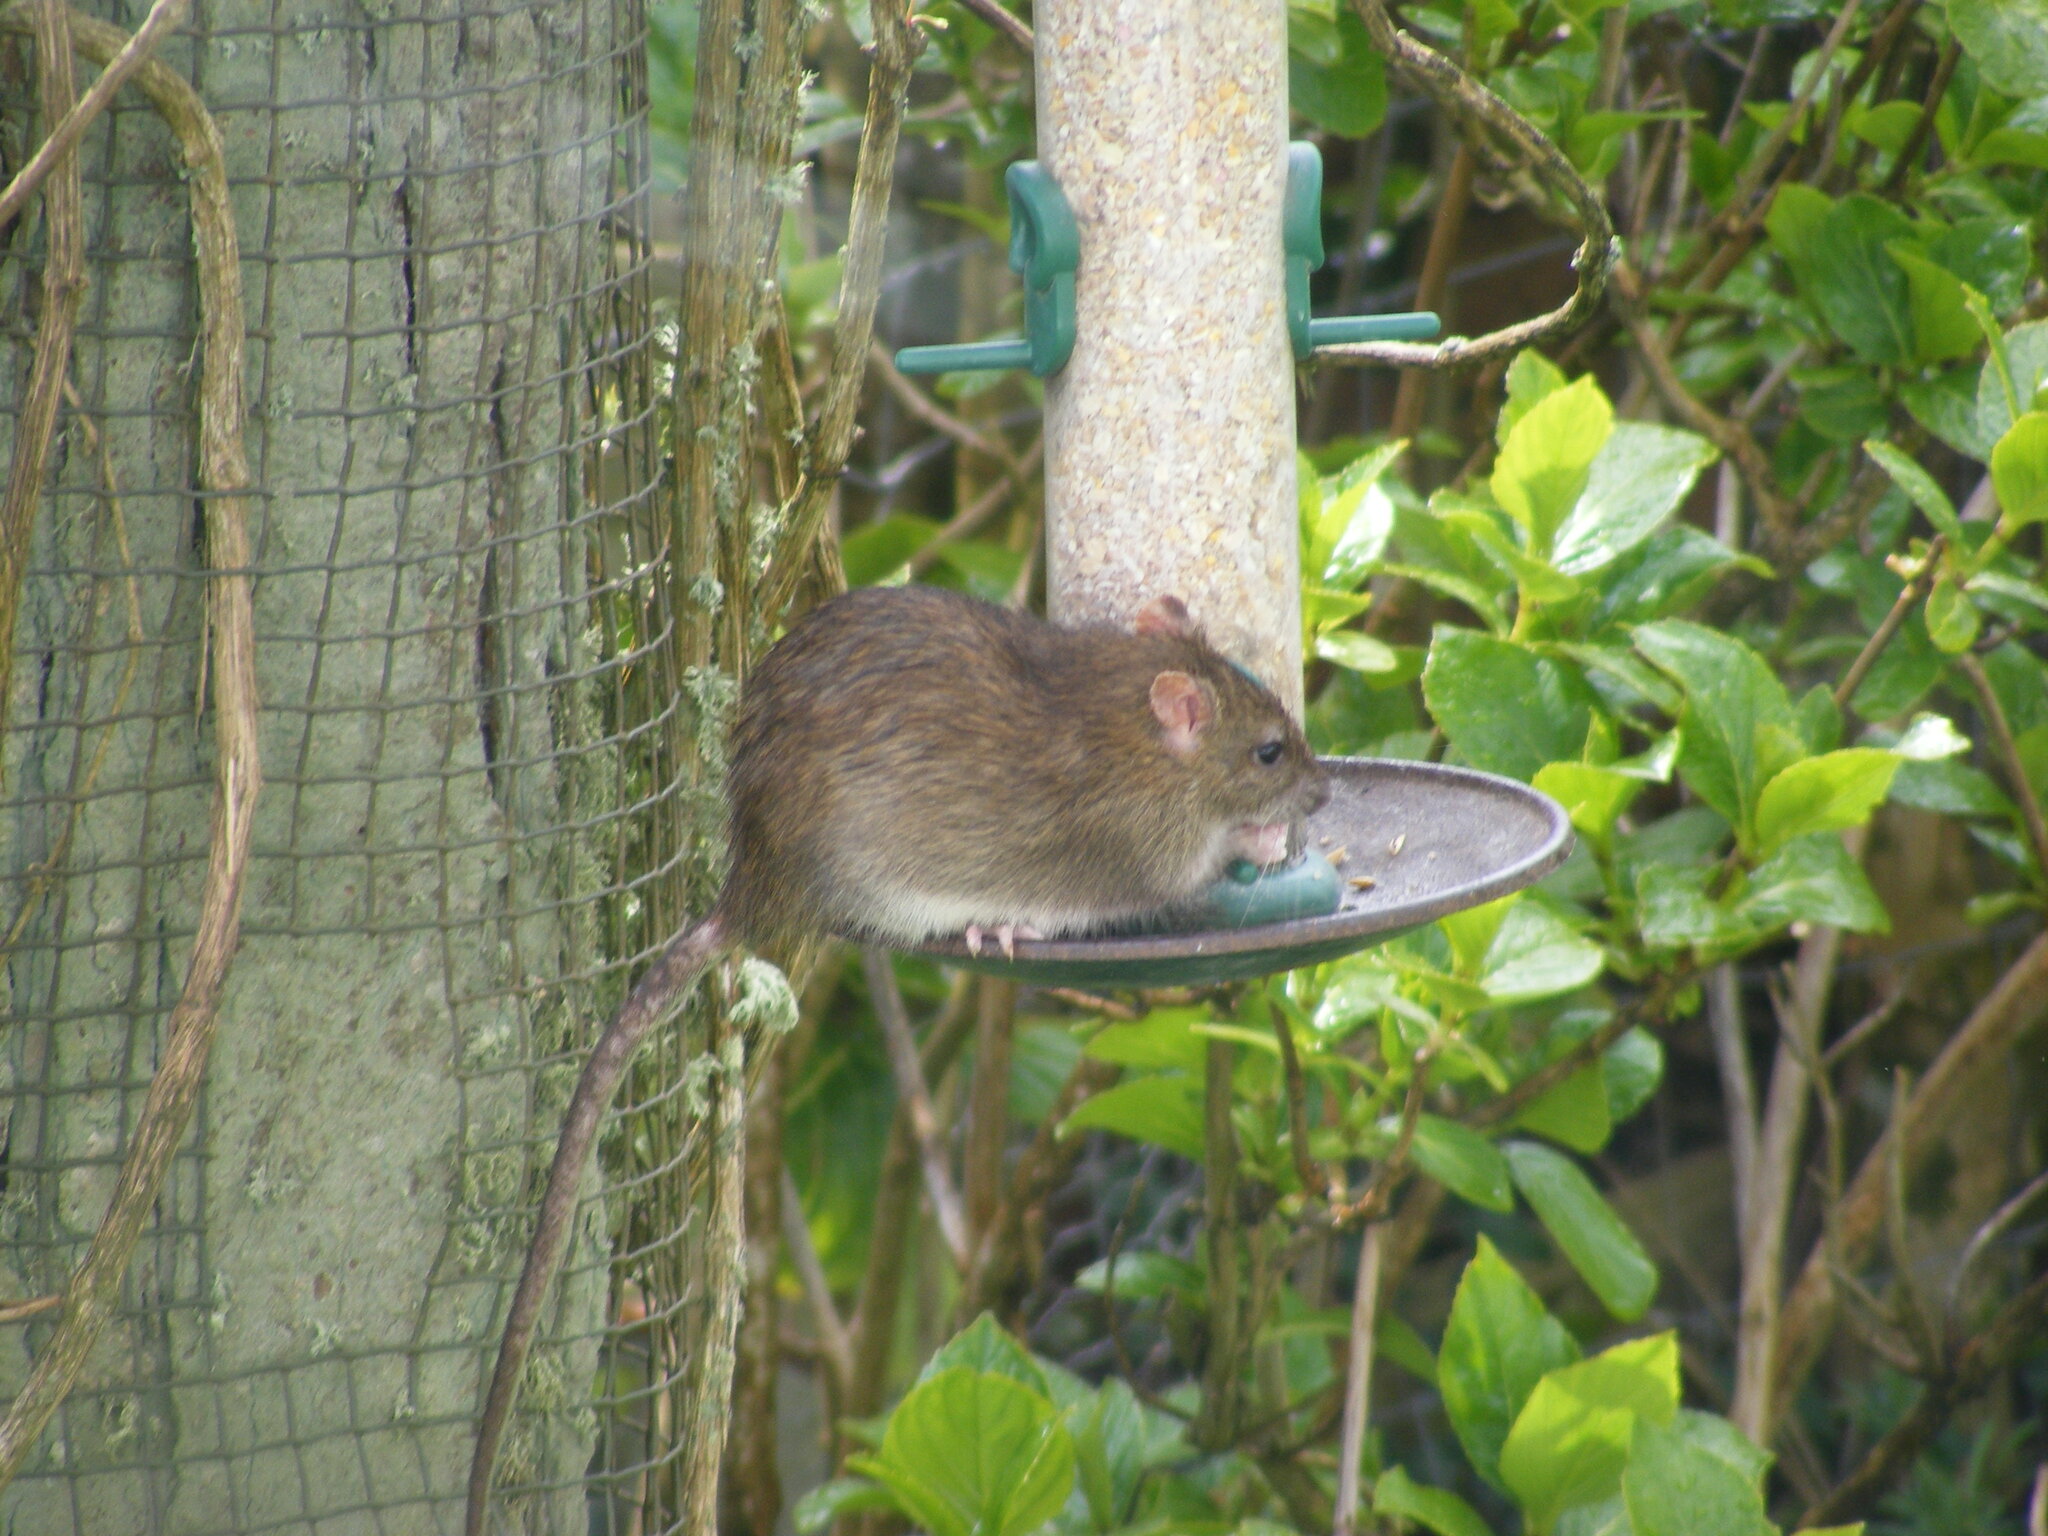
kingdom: Animalia
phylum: Chordata
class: Mammalia
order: Rodentia
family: Muridae
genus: Rattus
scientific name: Rattus norvegicus
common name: Brown rat
